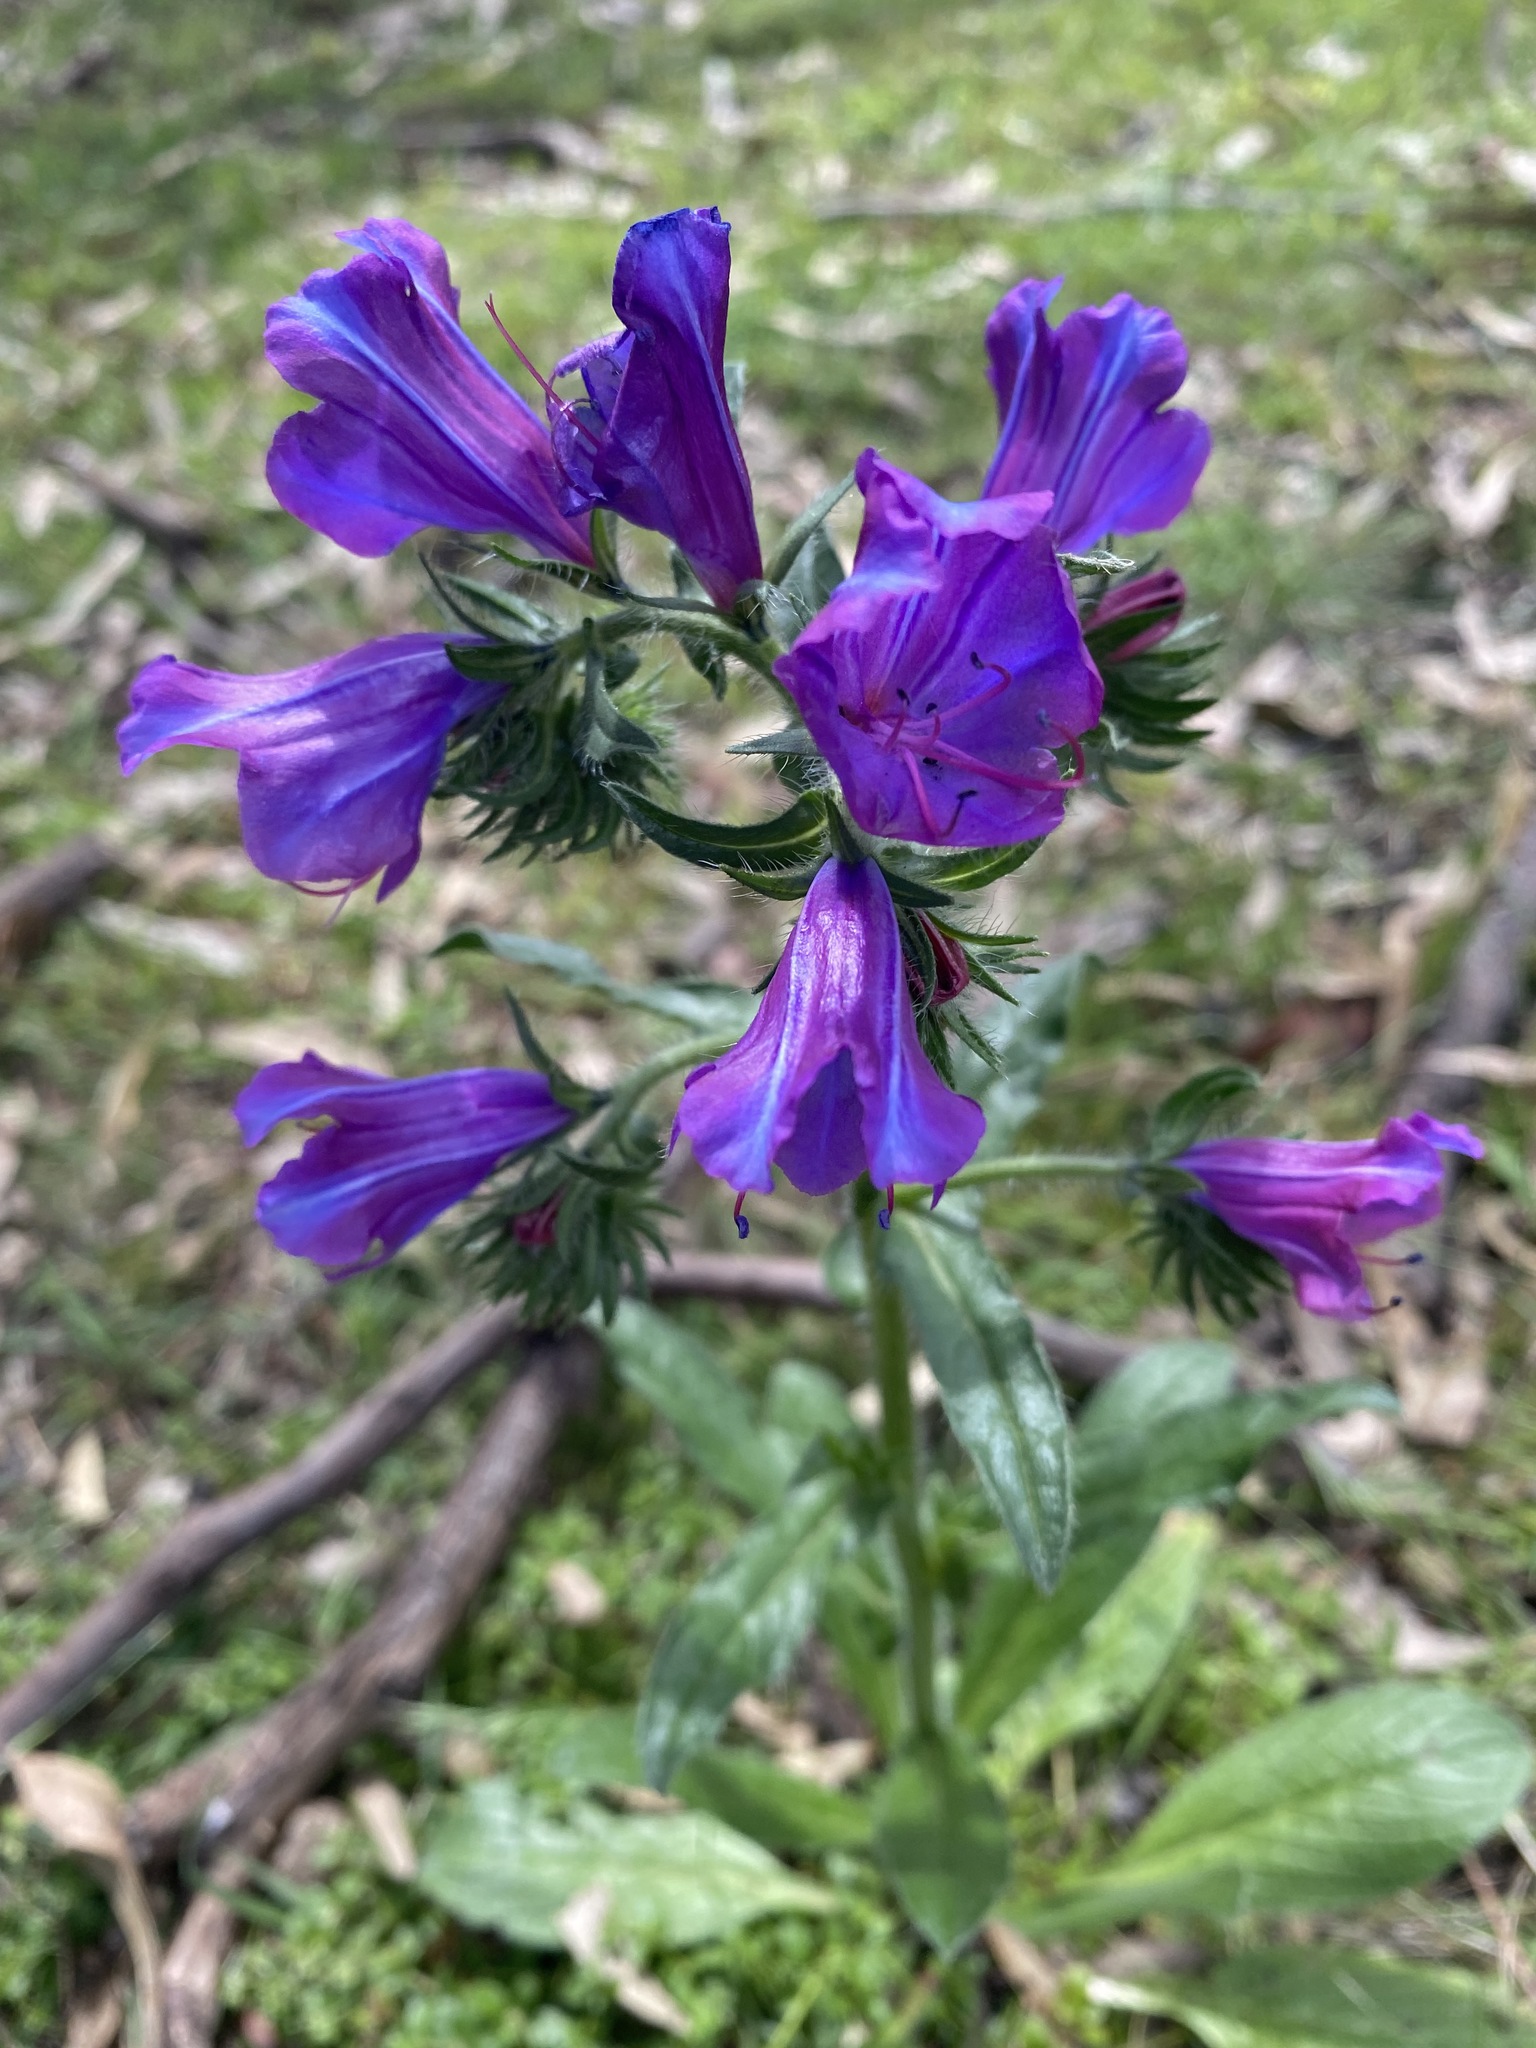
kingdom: Plantae
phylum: Tracheophyta
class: Magnoliopsida
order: Boraginales
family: Boraginaceae
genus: Echium
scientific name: Echium plantagineum
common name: Purple viper's-bugloss
